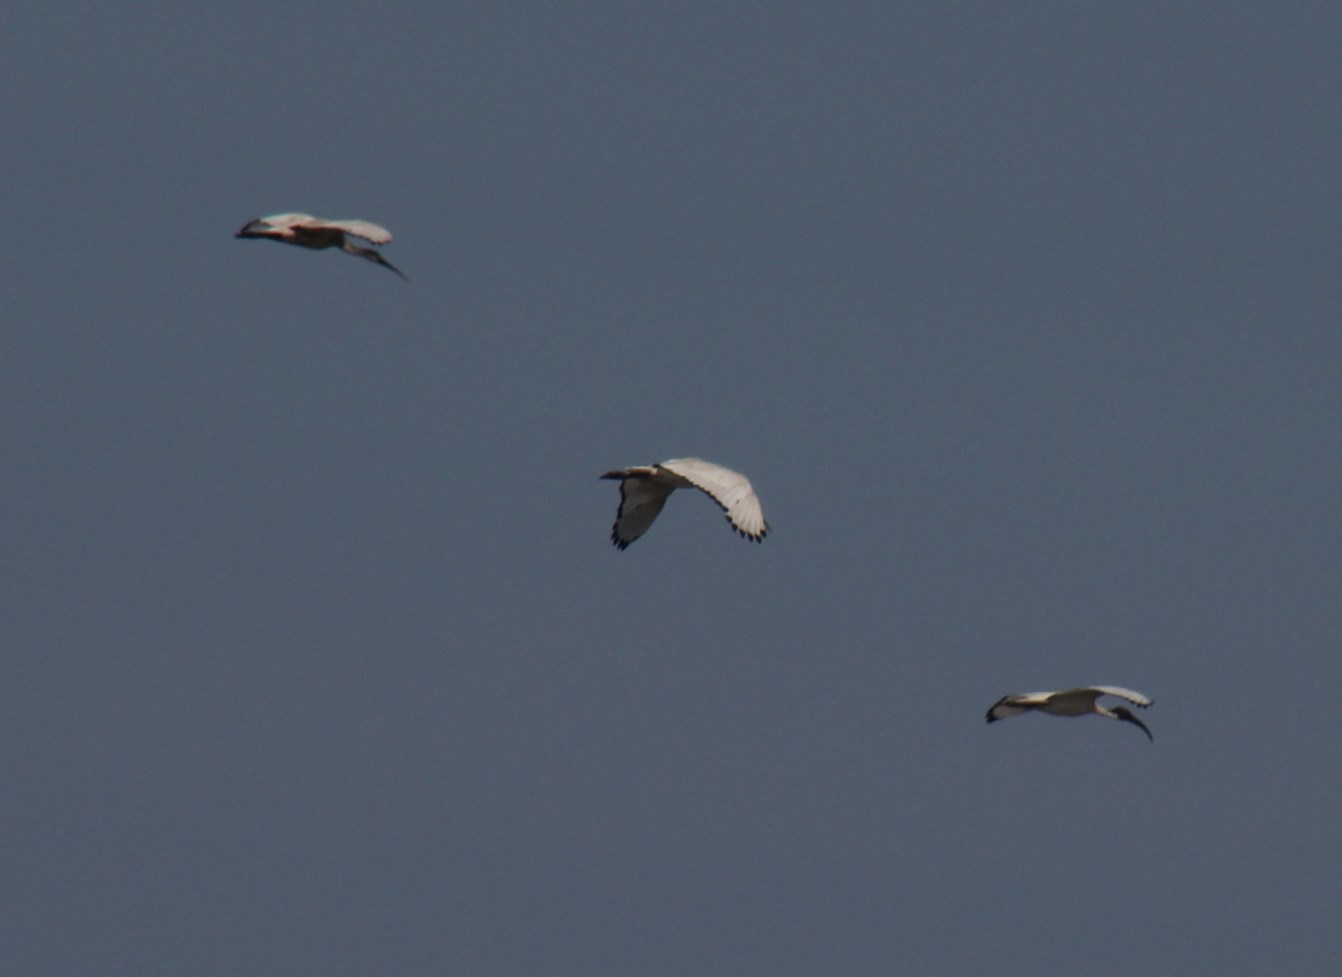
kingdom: Animalia
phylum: Chordata
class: Aves
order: Pelecaniformes
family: Threskiornithidae
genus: Threskiornis
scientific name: Threskiornis aethiopicus
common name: Sacred ibis
